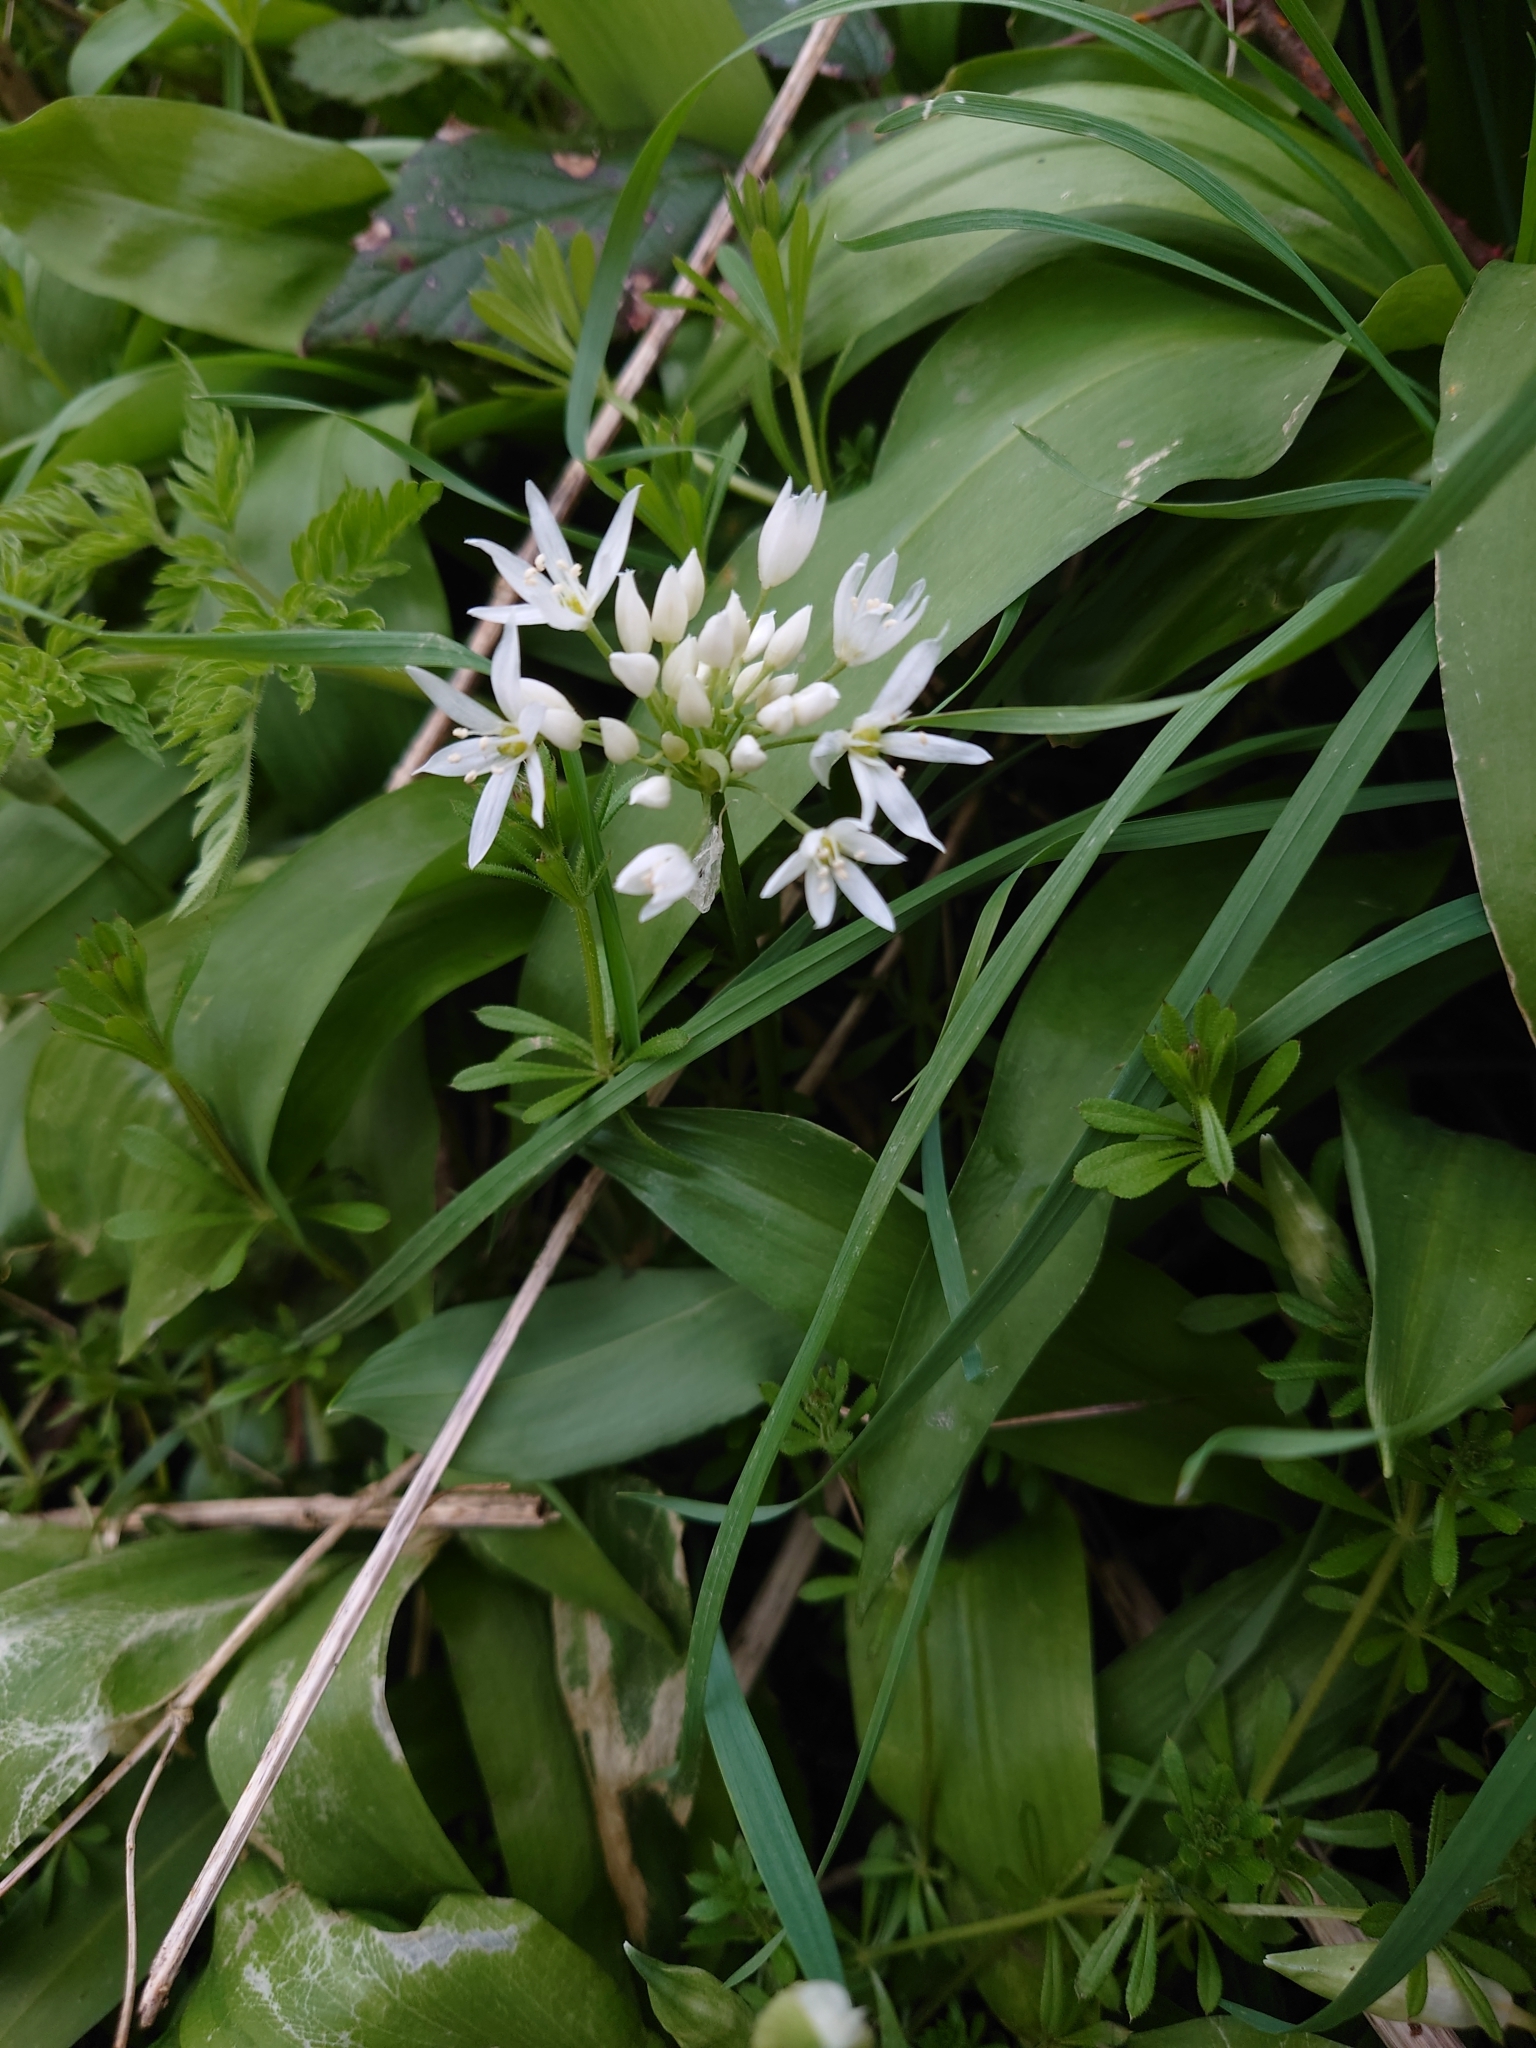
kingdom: Plantae
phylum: Tracheophyta
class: Liliopsida
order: Asparagales
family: Amaryllidaceae
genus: Allium
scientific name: Allium ursinum
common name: Ramsons
